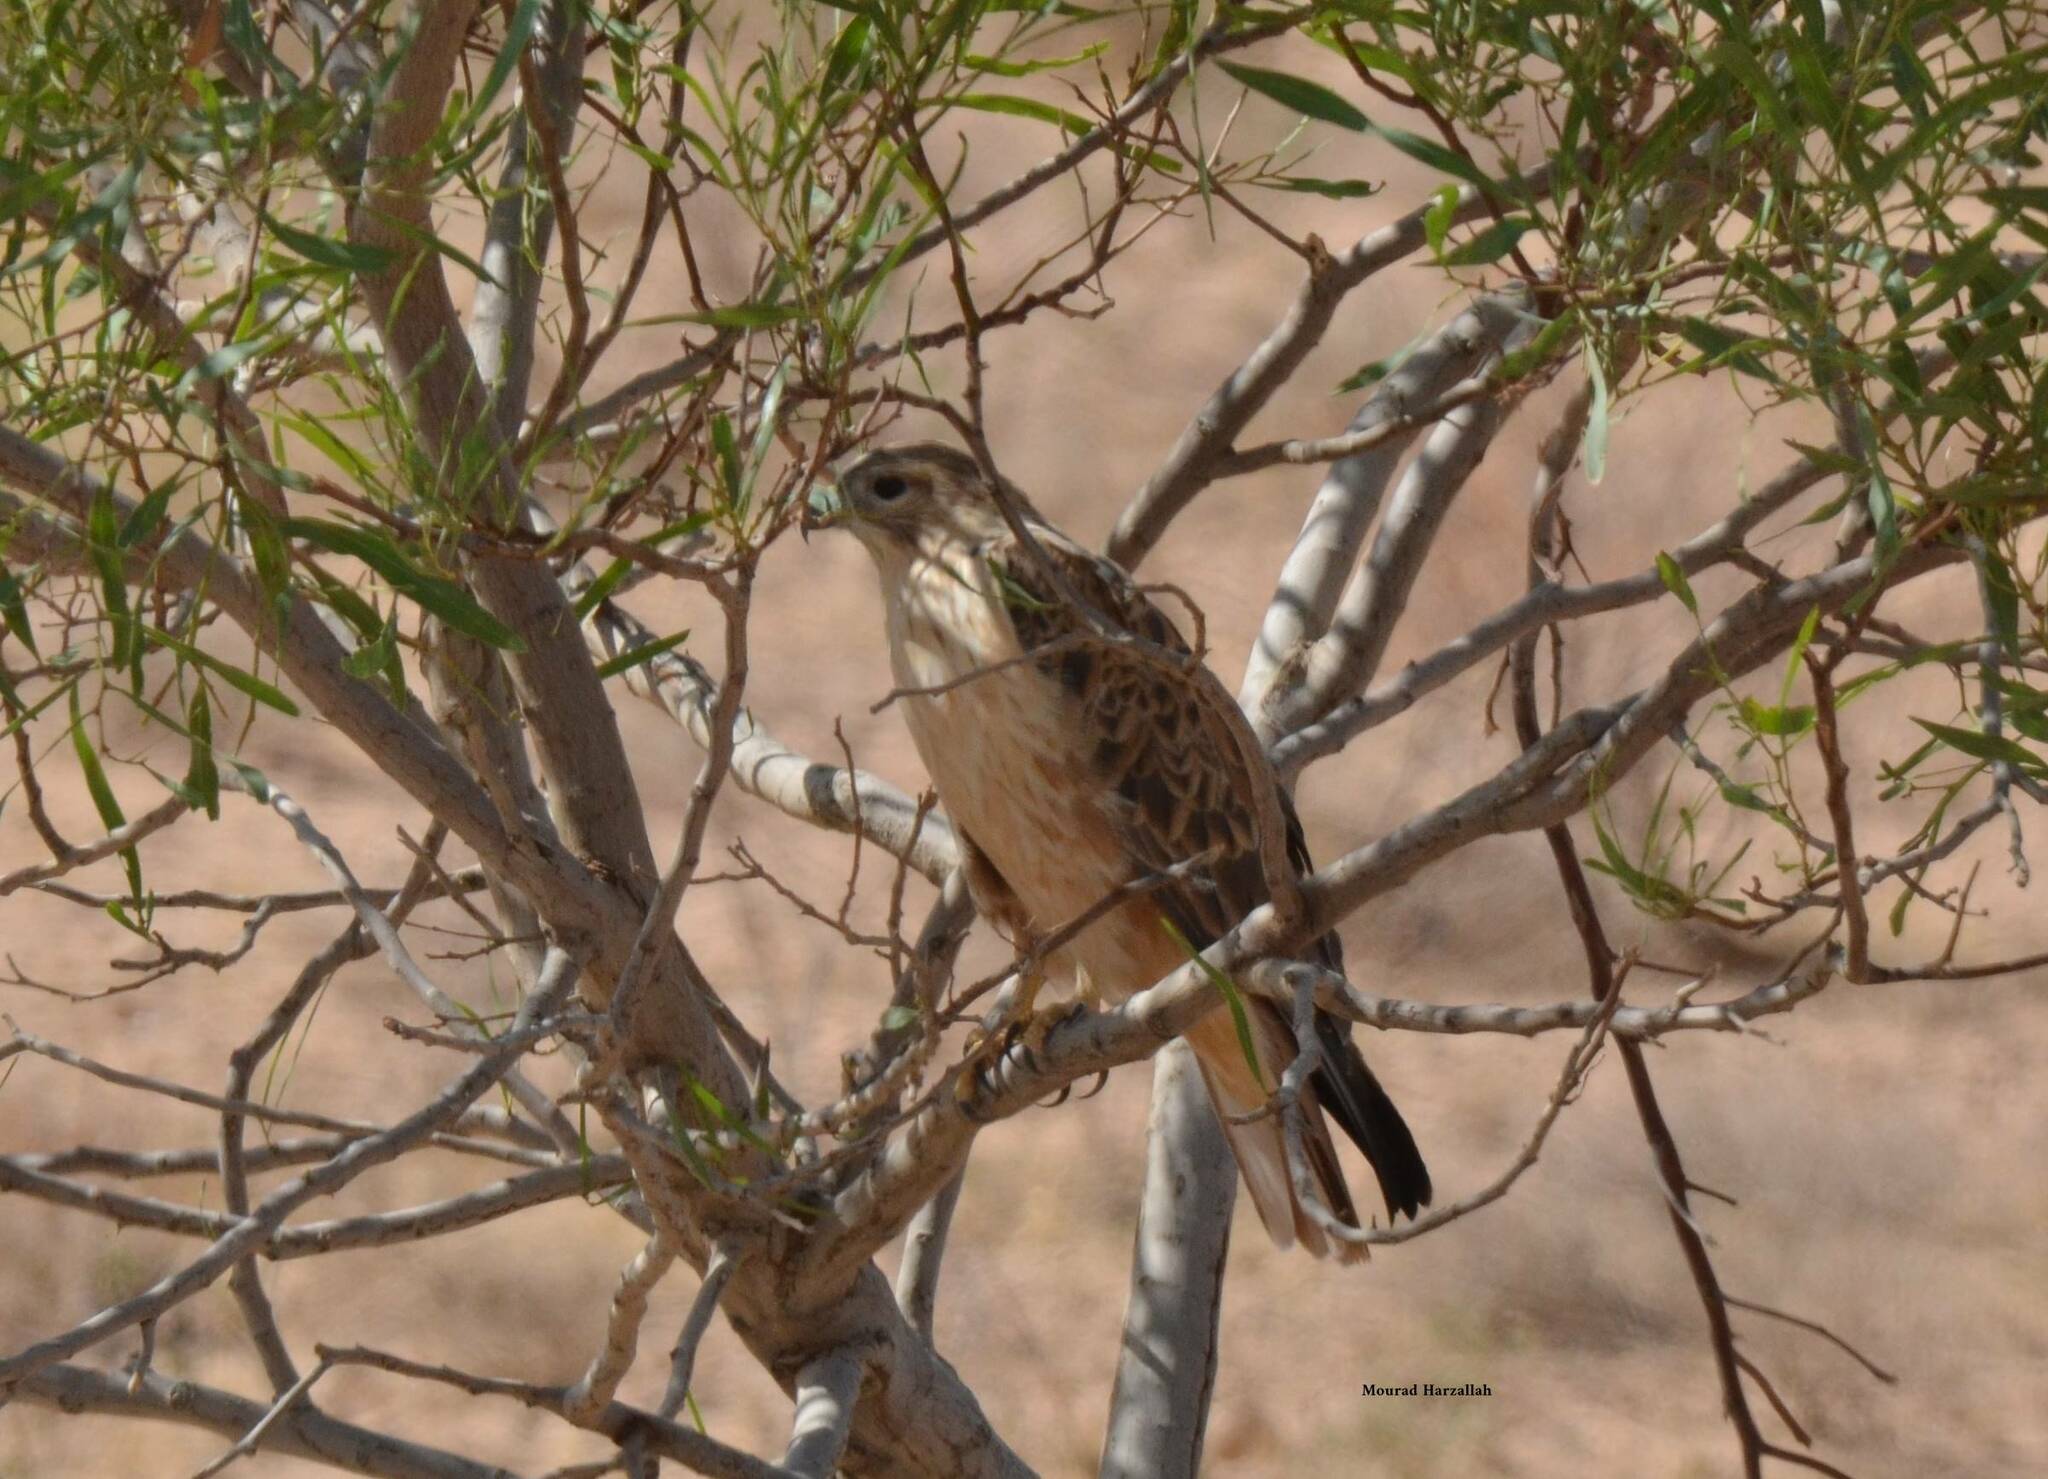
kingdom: Animalia
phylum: Chordata
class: Aves
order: Accipitriformes
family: Accipitridae
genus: Buteo
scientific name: Buteo rufinus
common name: Long-legged buzzard
